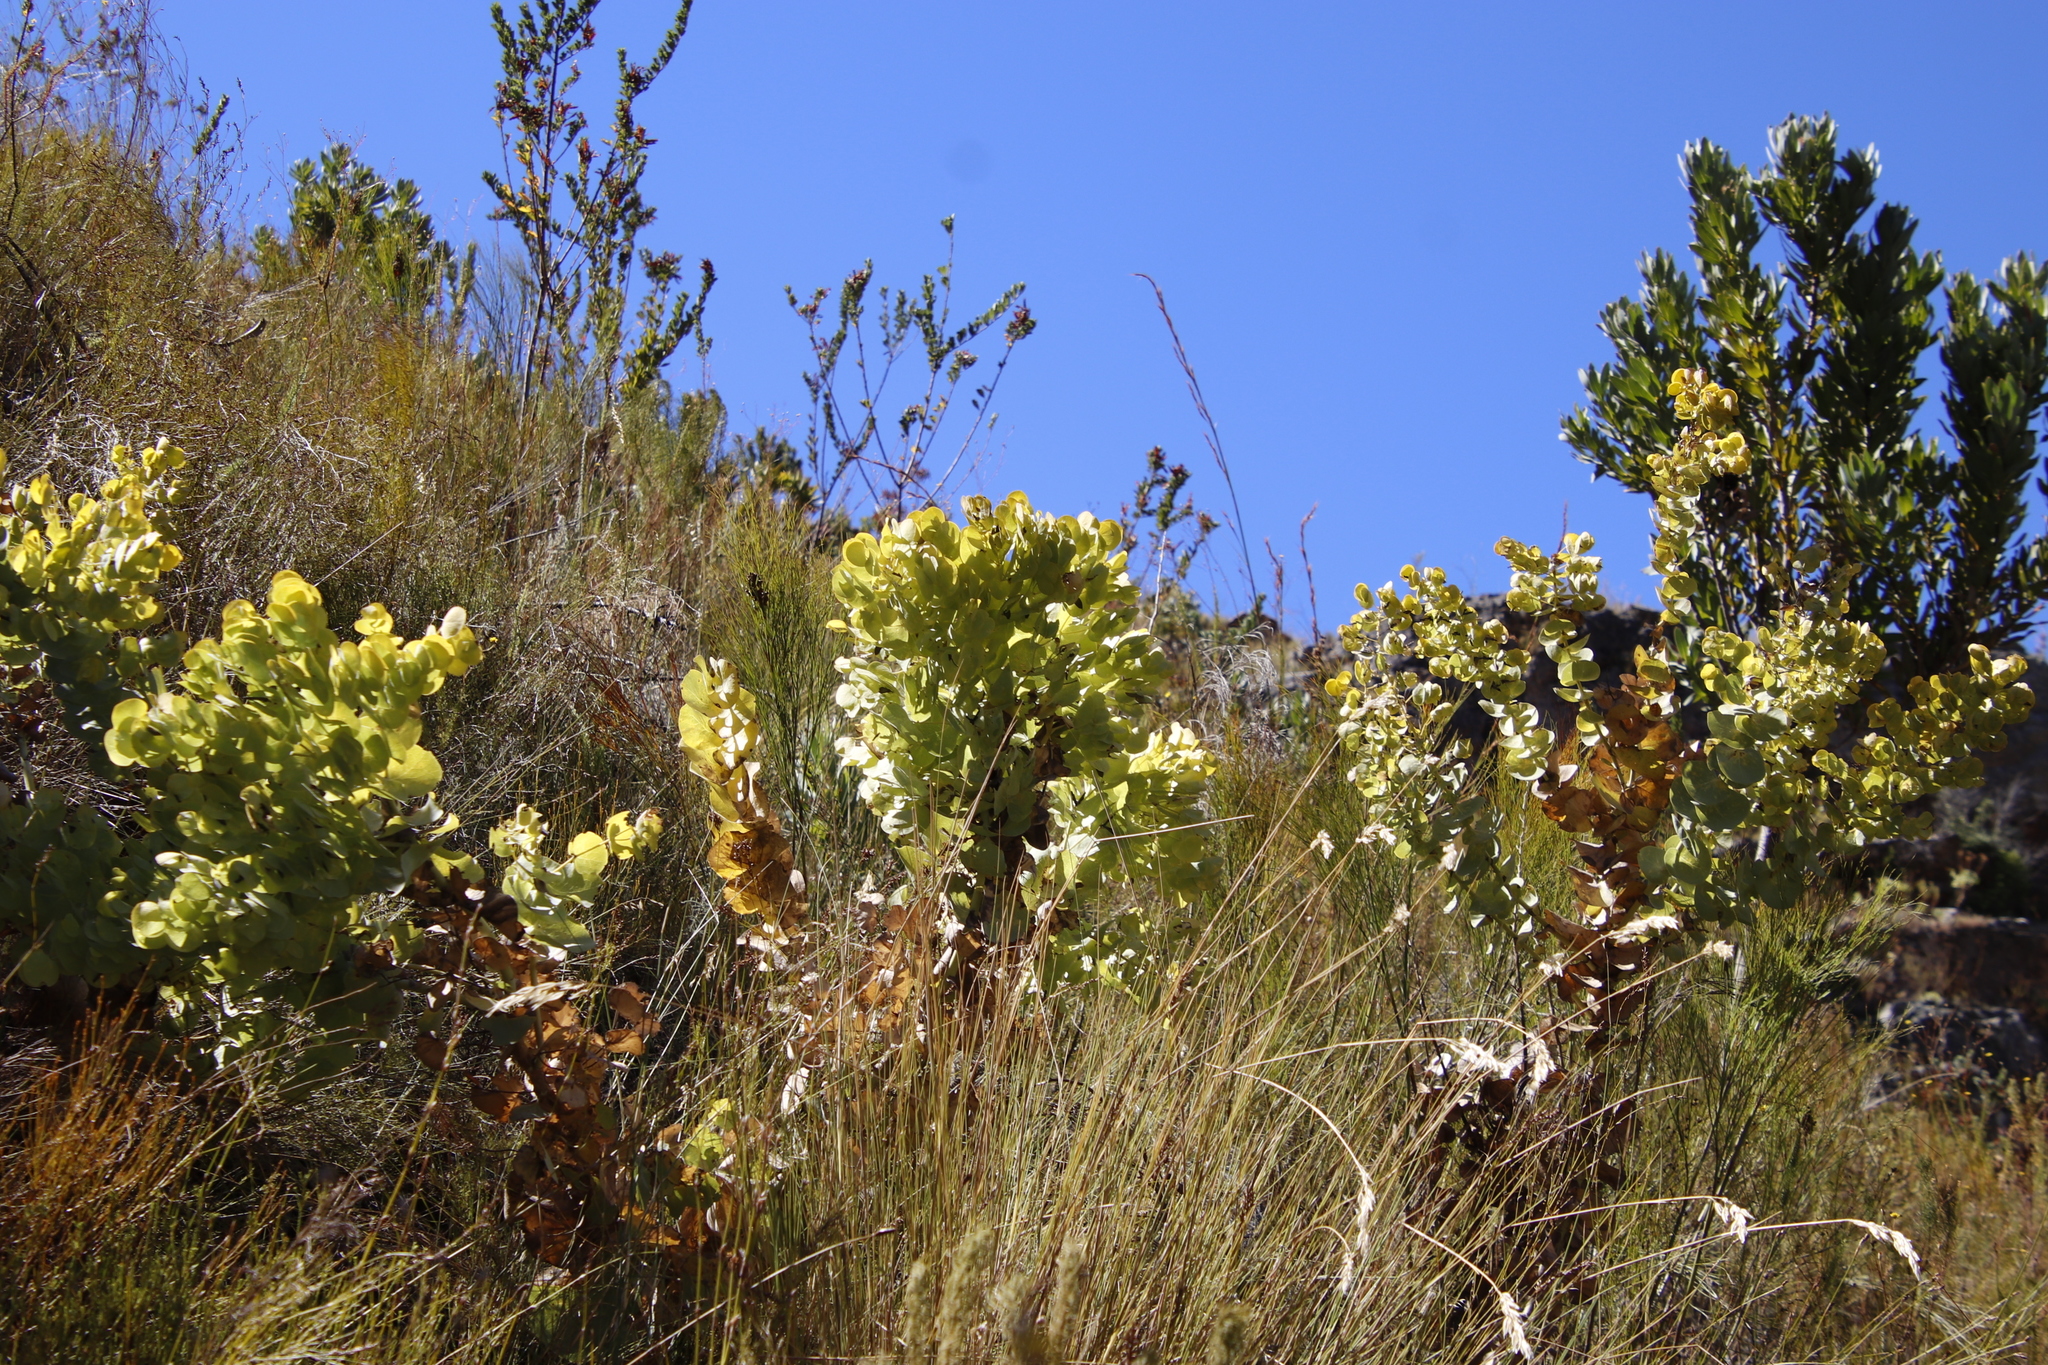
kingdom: Plantae
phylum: Tracheophyta
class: Magnoliopsida
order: Fabales
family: Fabaceae
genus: Rafnia
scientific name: Rafnia amplexicaulis
